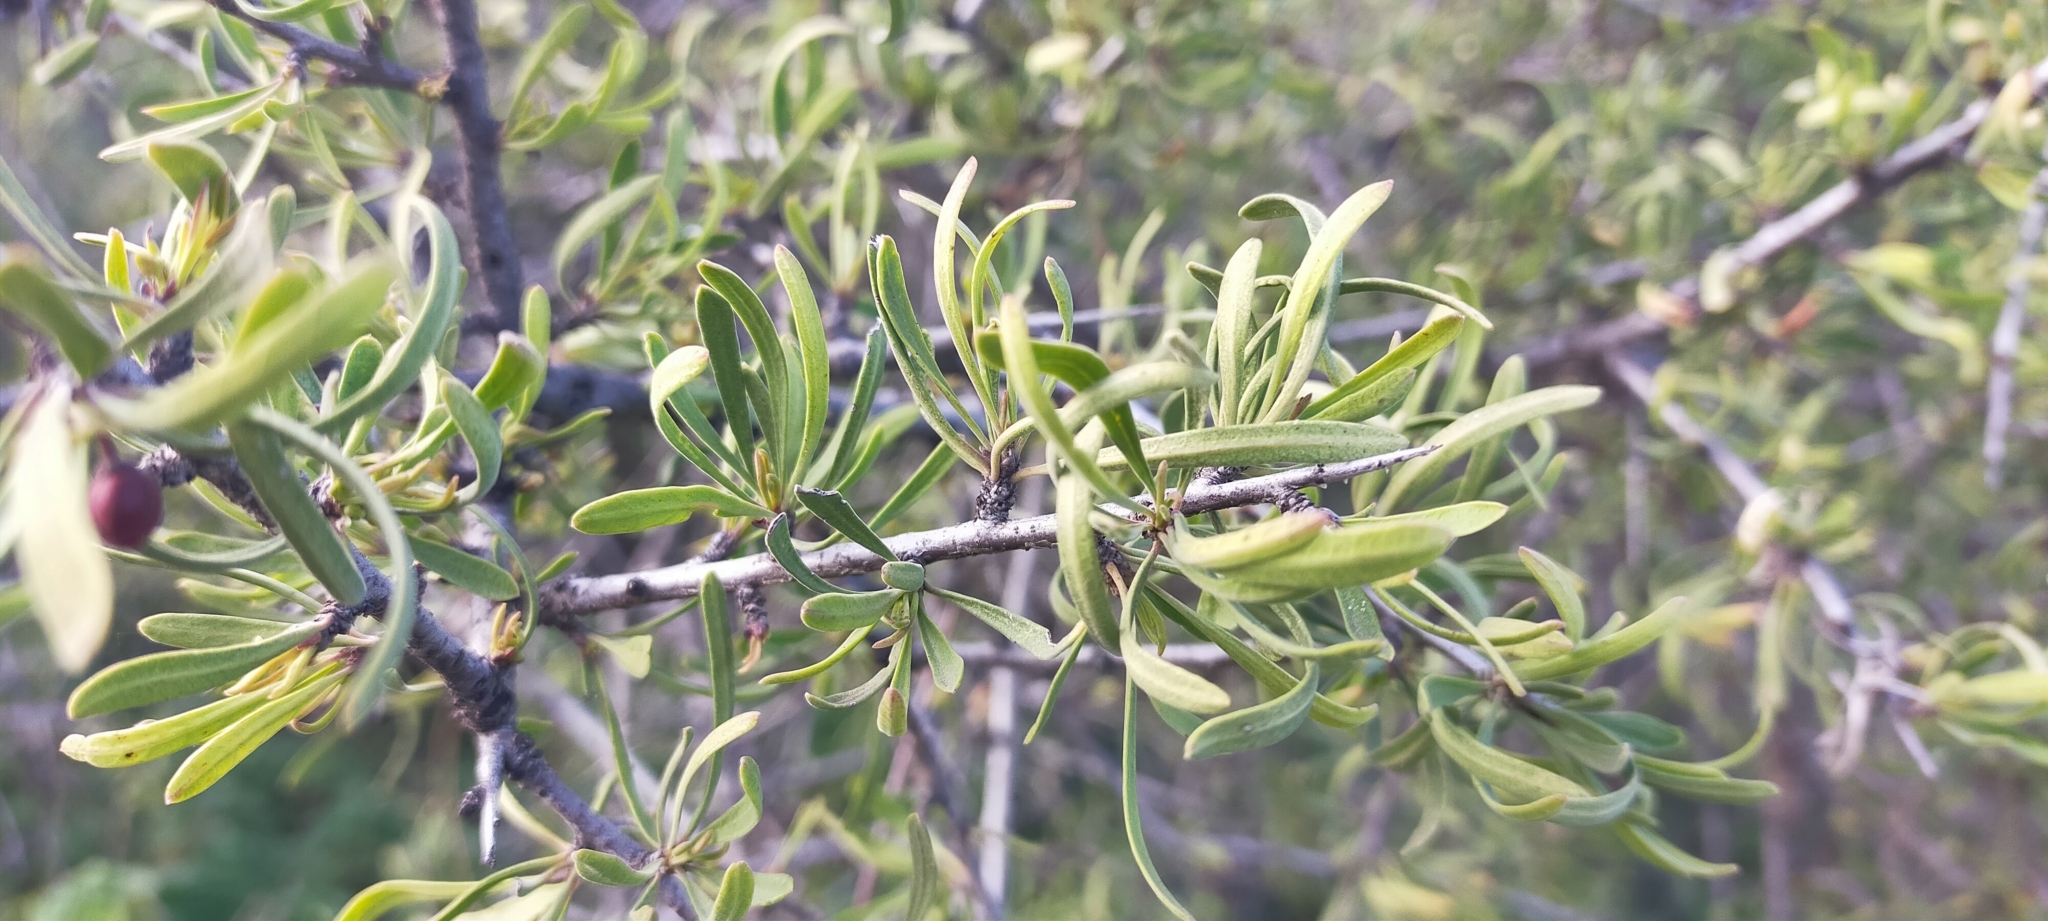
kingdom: Plantae
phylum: Tracheophyta
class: Magnoliopsida
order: Rosales
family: Rhamnaceae
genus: Rhamnus
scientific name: Rhamnus lycioides
